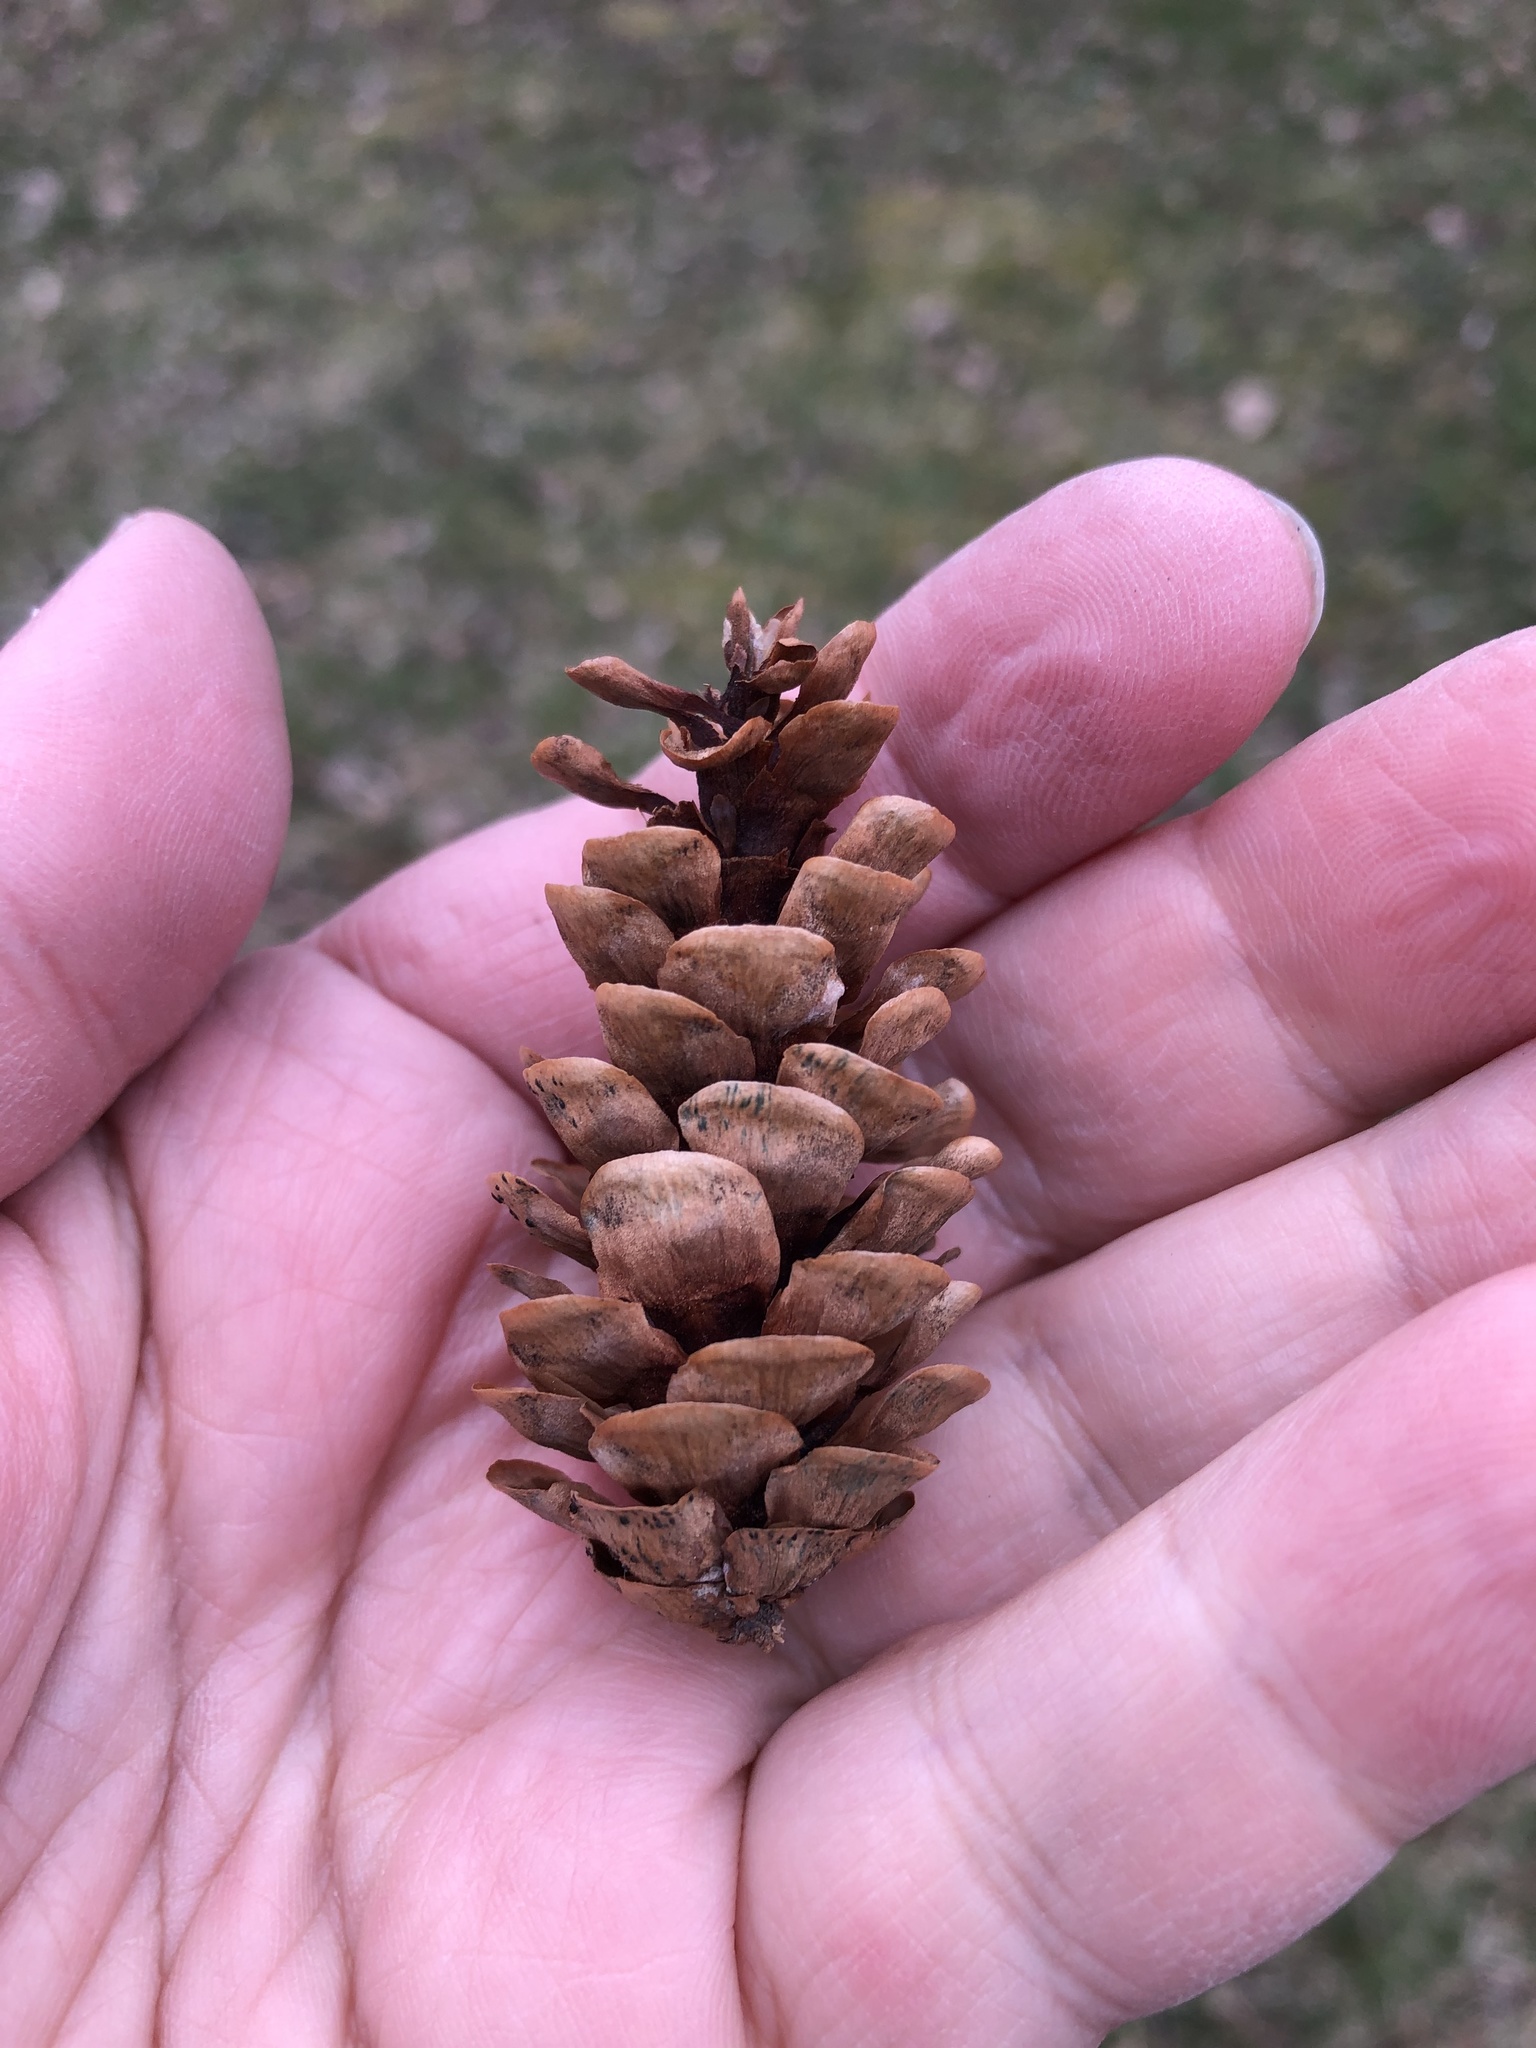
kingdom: Plantae
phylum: Tracheophyta
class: Pinopsida
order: Pinales
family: Pinaceae
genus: Picea
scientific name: Picea glauca
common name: White spruce
